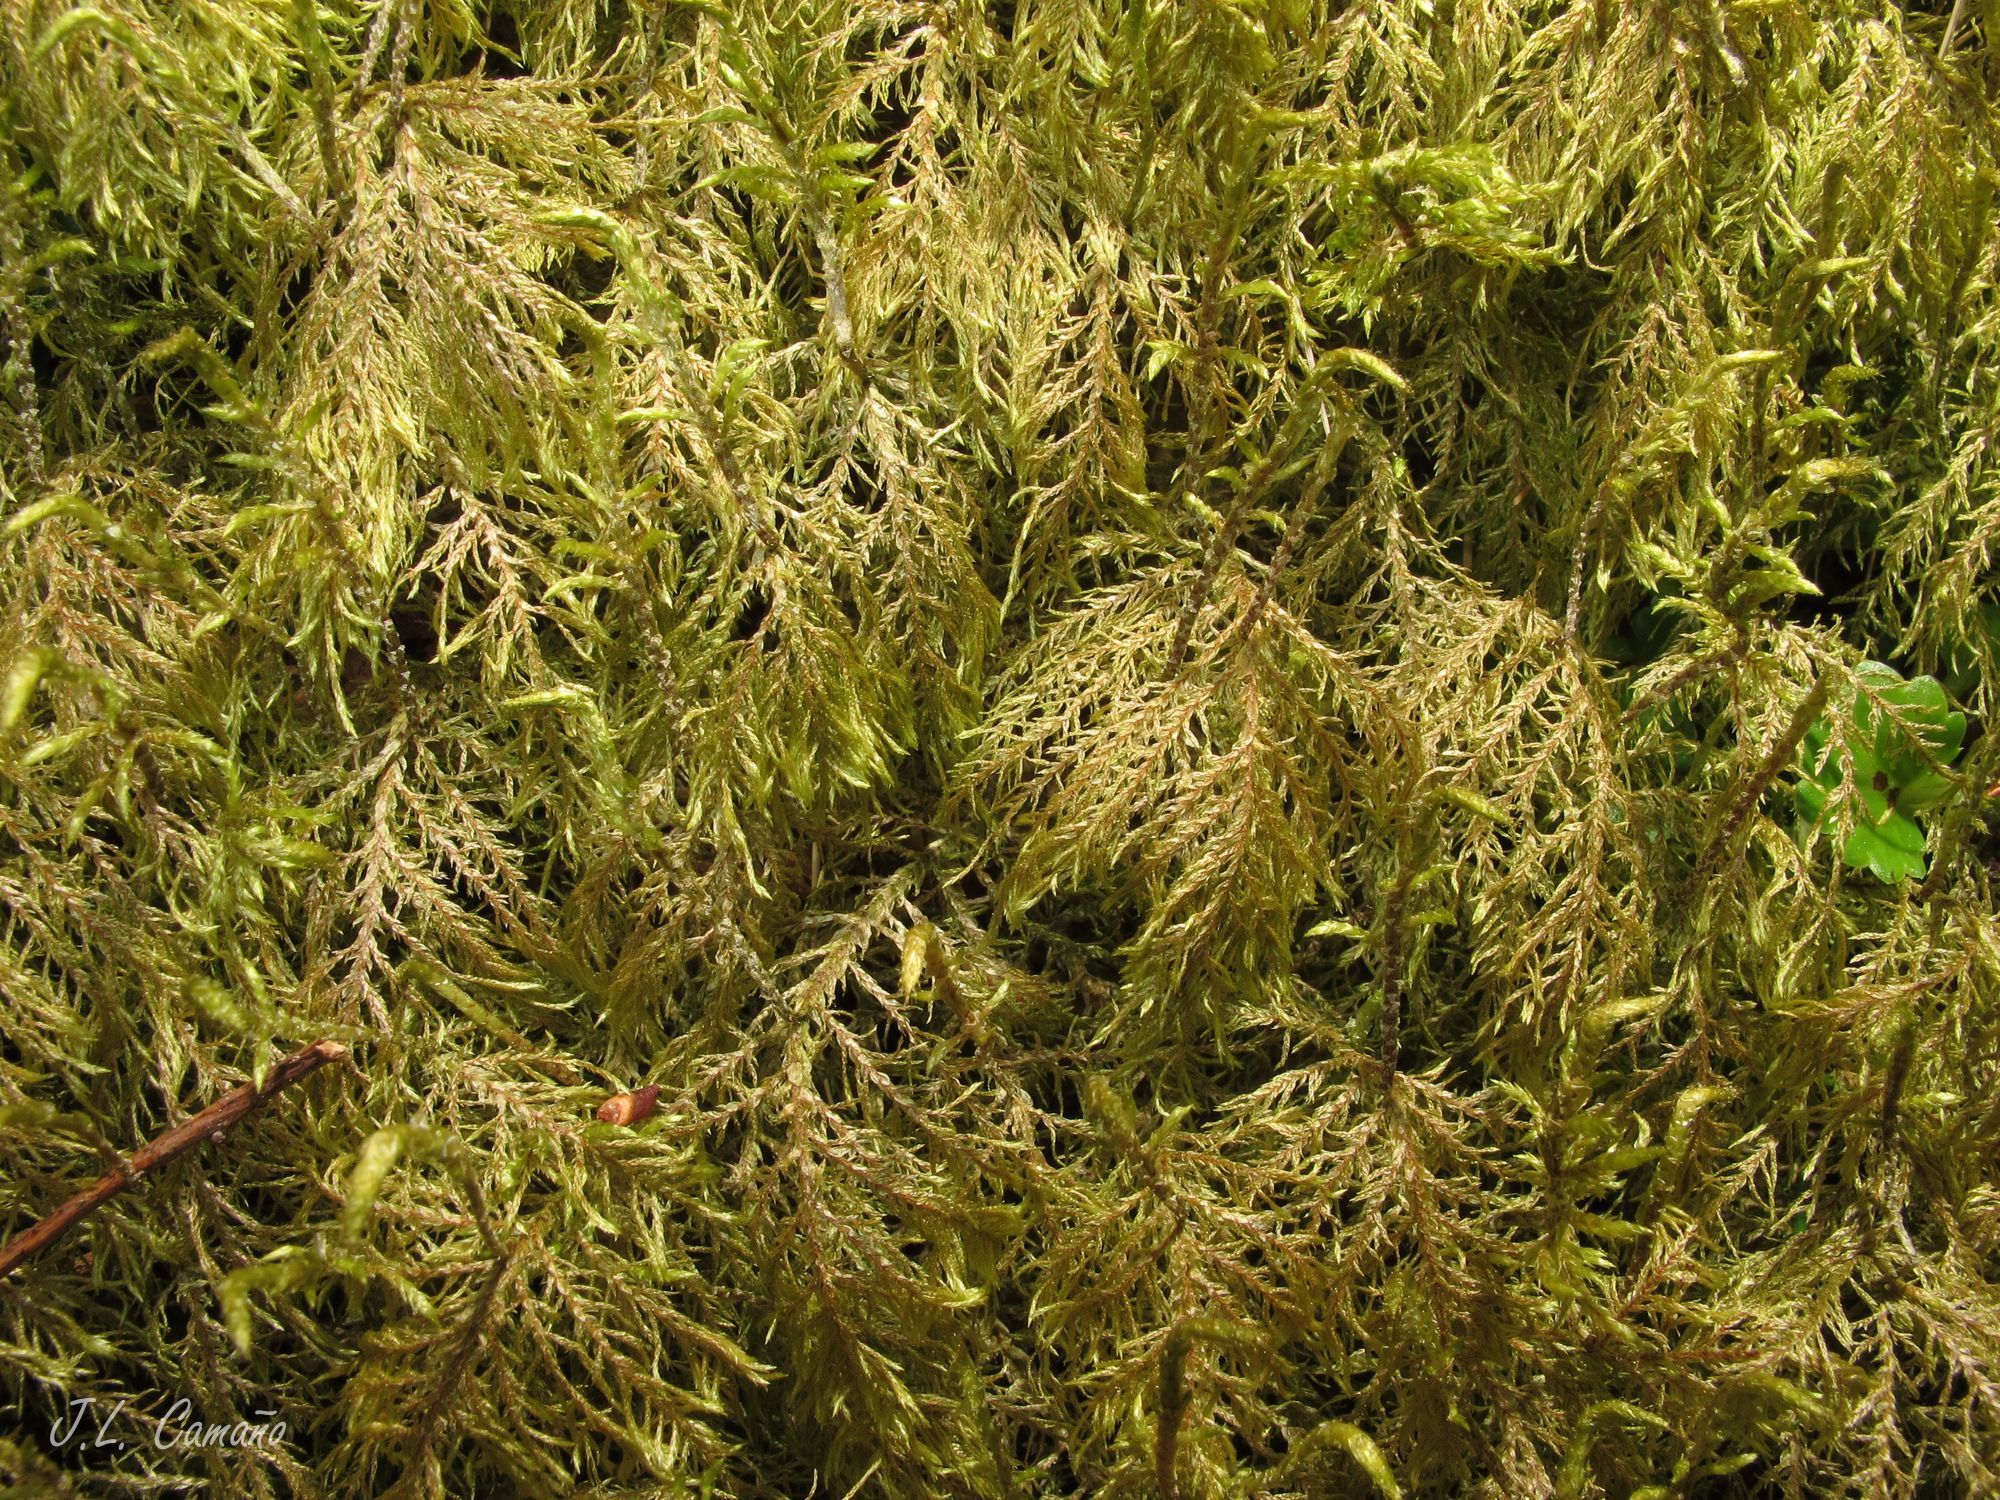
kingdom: Plantae
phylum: Bryophyta
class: Bryopsida
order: Hypnales
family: Hylocomiaceae
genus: Hylocomium
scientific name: Hylocomium splendens
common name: Stairstep moss
